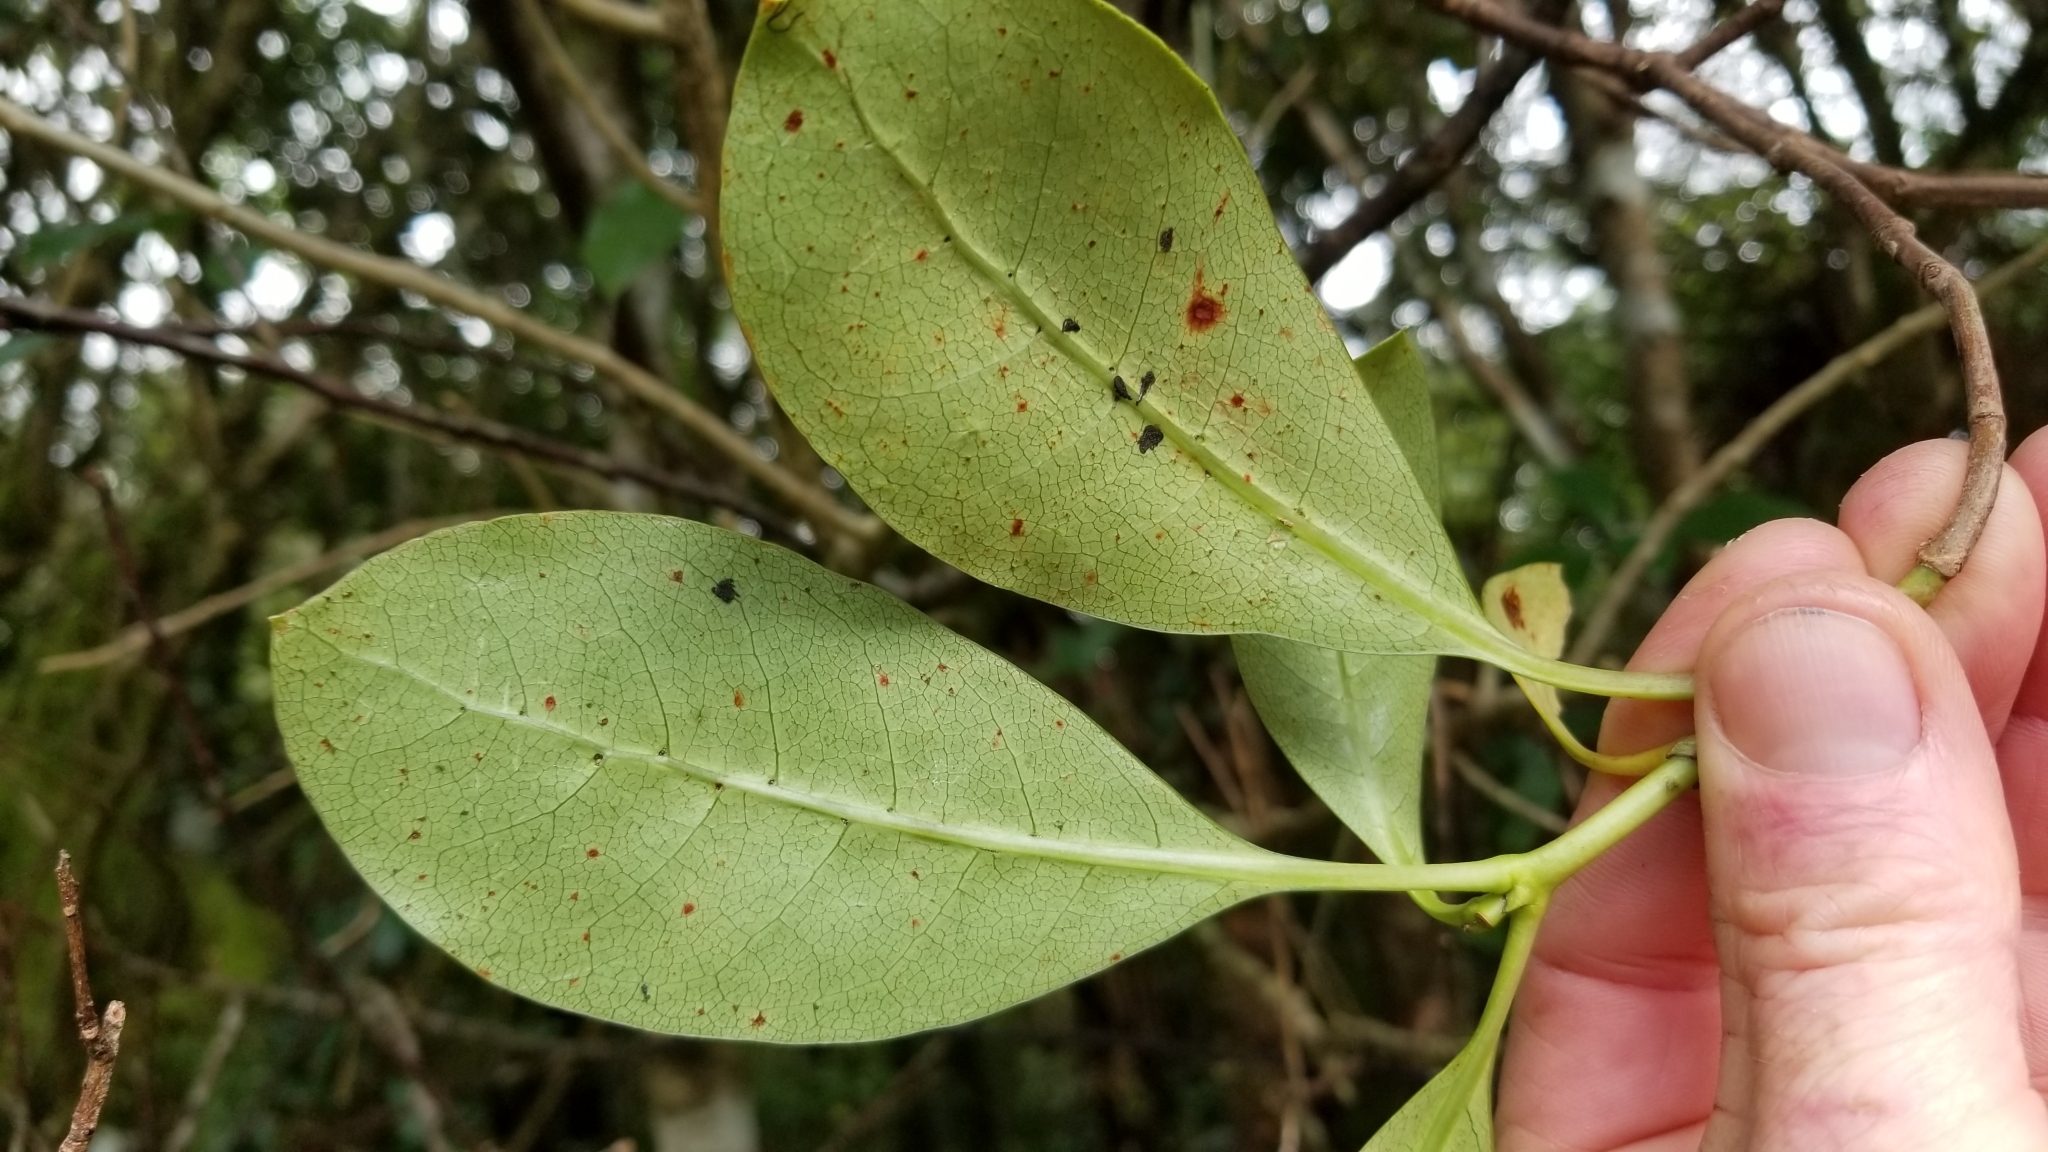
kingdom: Plantae
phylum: Tracheophyta
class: Magnoliopsida
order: Gentianales
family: Rubiaceae
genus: Coprosma
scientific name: Coprosma lucida
